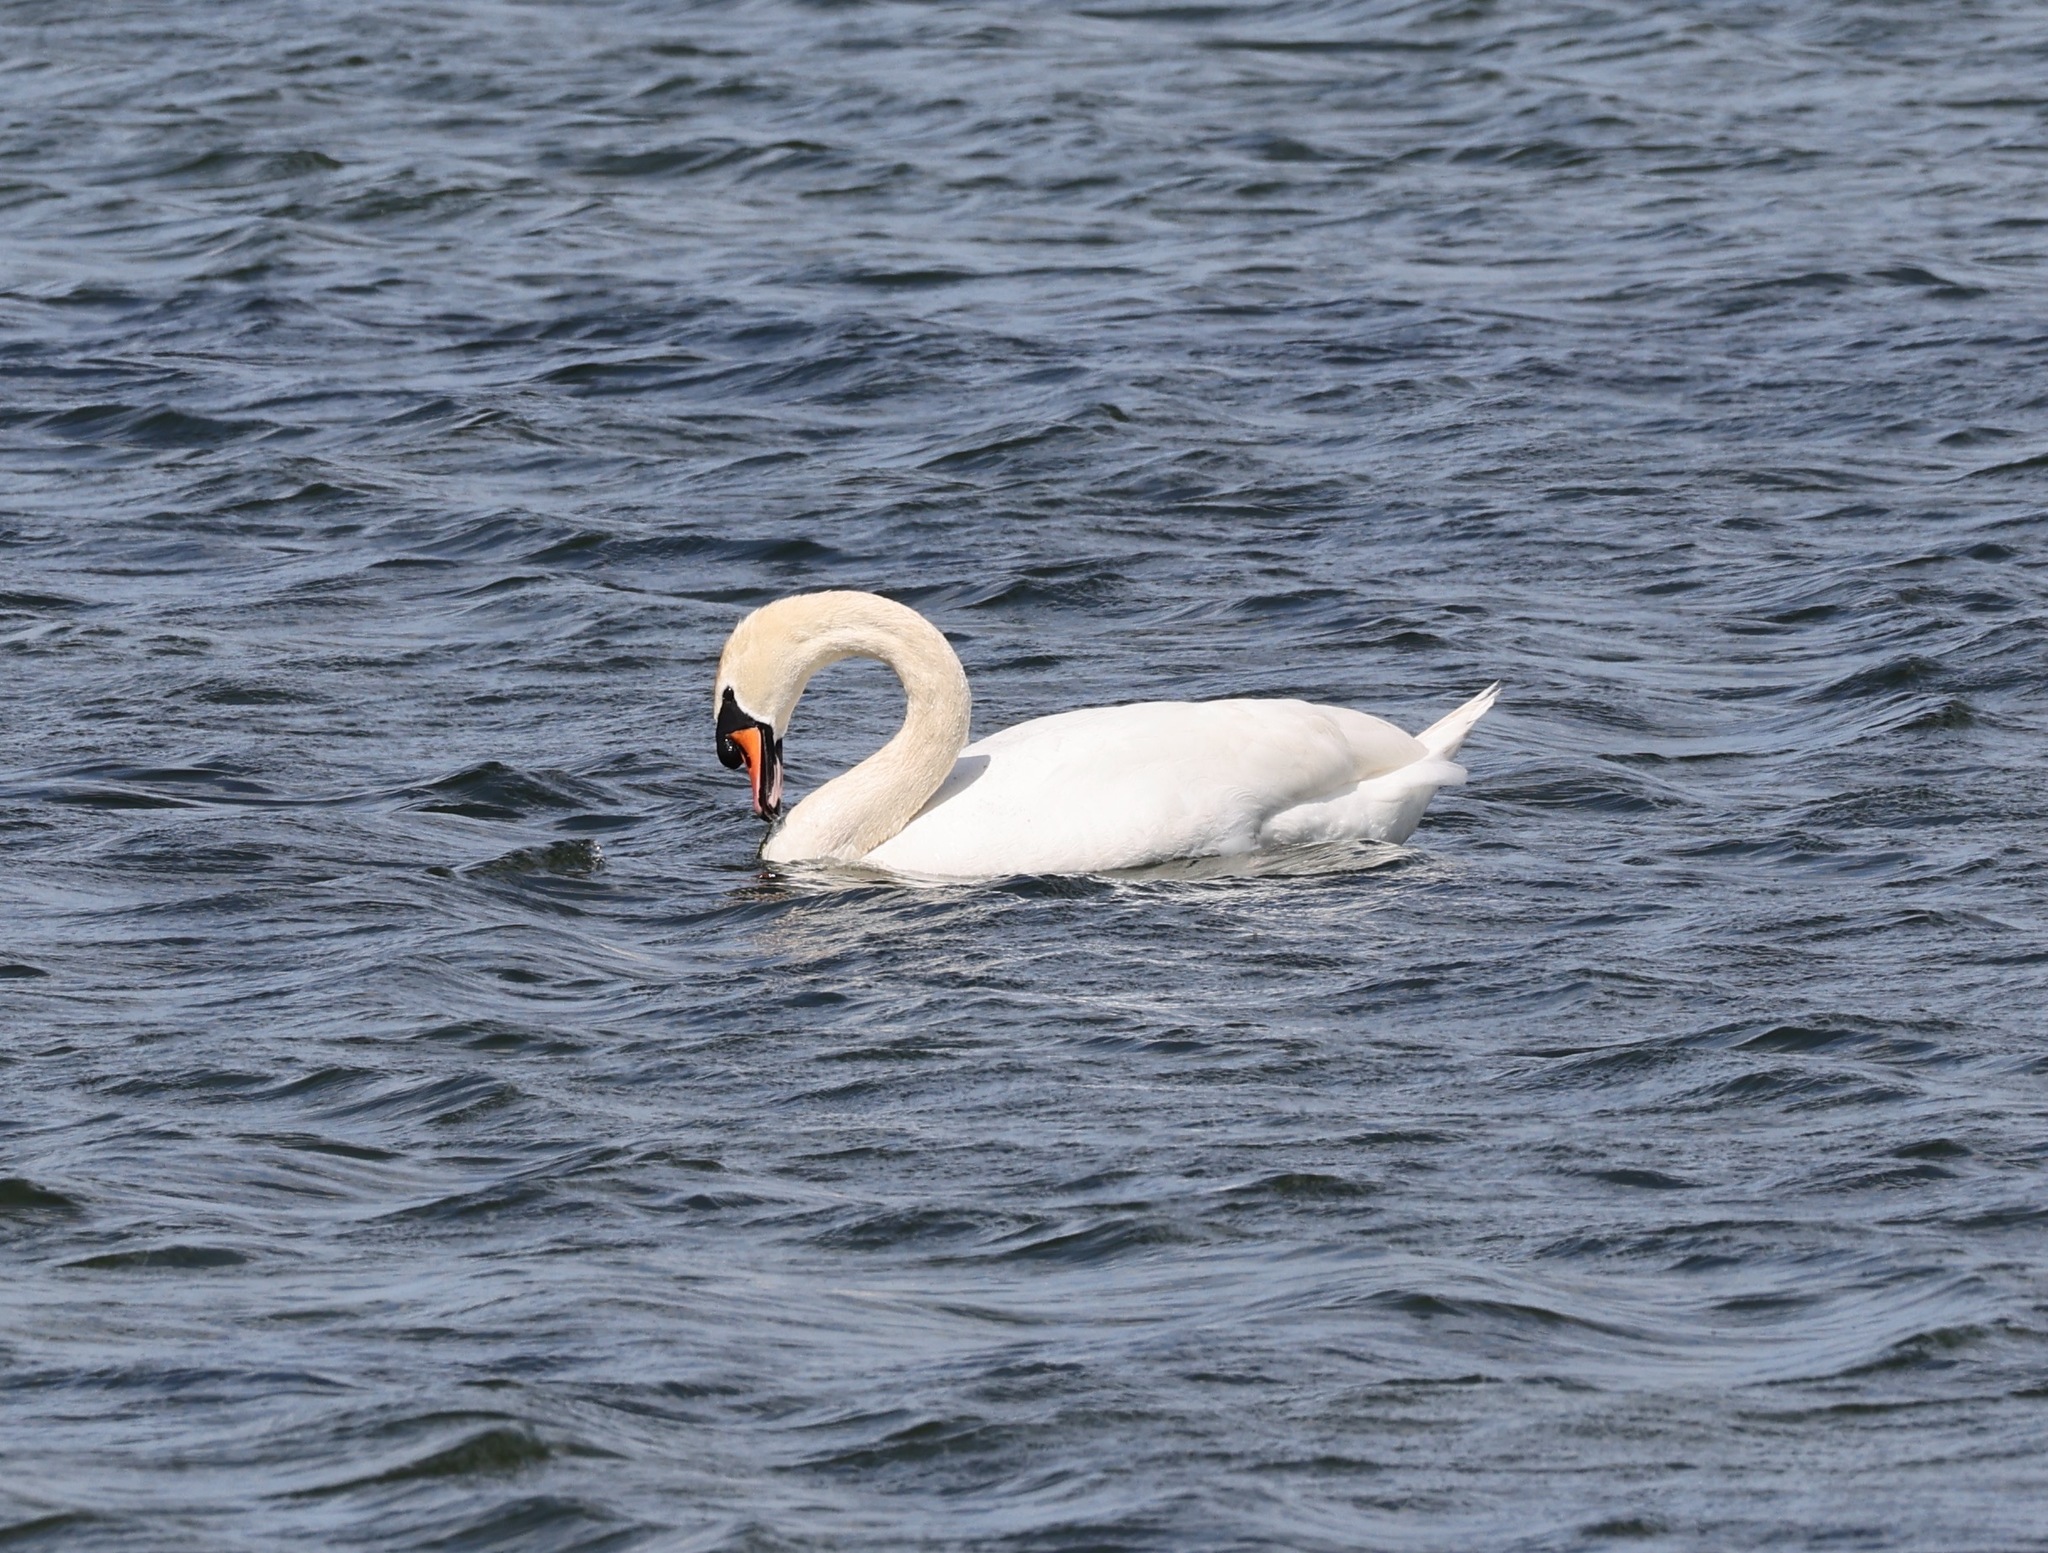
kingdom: Animalia
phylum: Chordata
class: Aves
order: Anseriformes
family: Anatidae
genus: Cygnus
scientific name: Cygnus olor
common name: Mute swan
